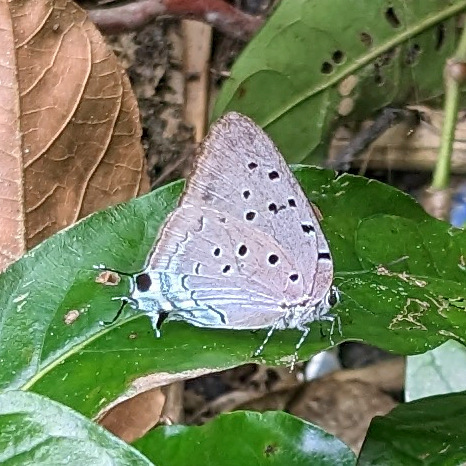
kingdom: Animalia
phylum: Arthropoda
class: Insecta
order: Lepidoptera
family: Lycaenidae
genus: Pseudolycaena
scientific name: Pseudolycaena marsyas
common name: Marsyas hairstreak
